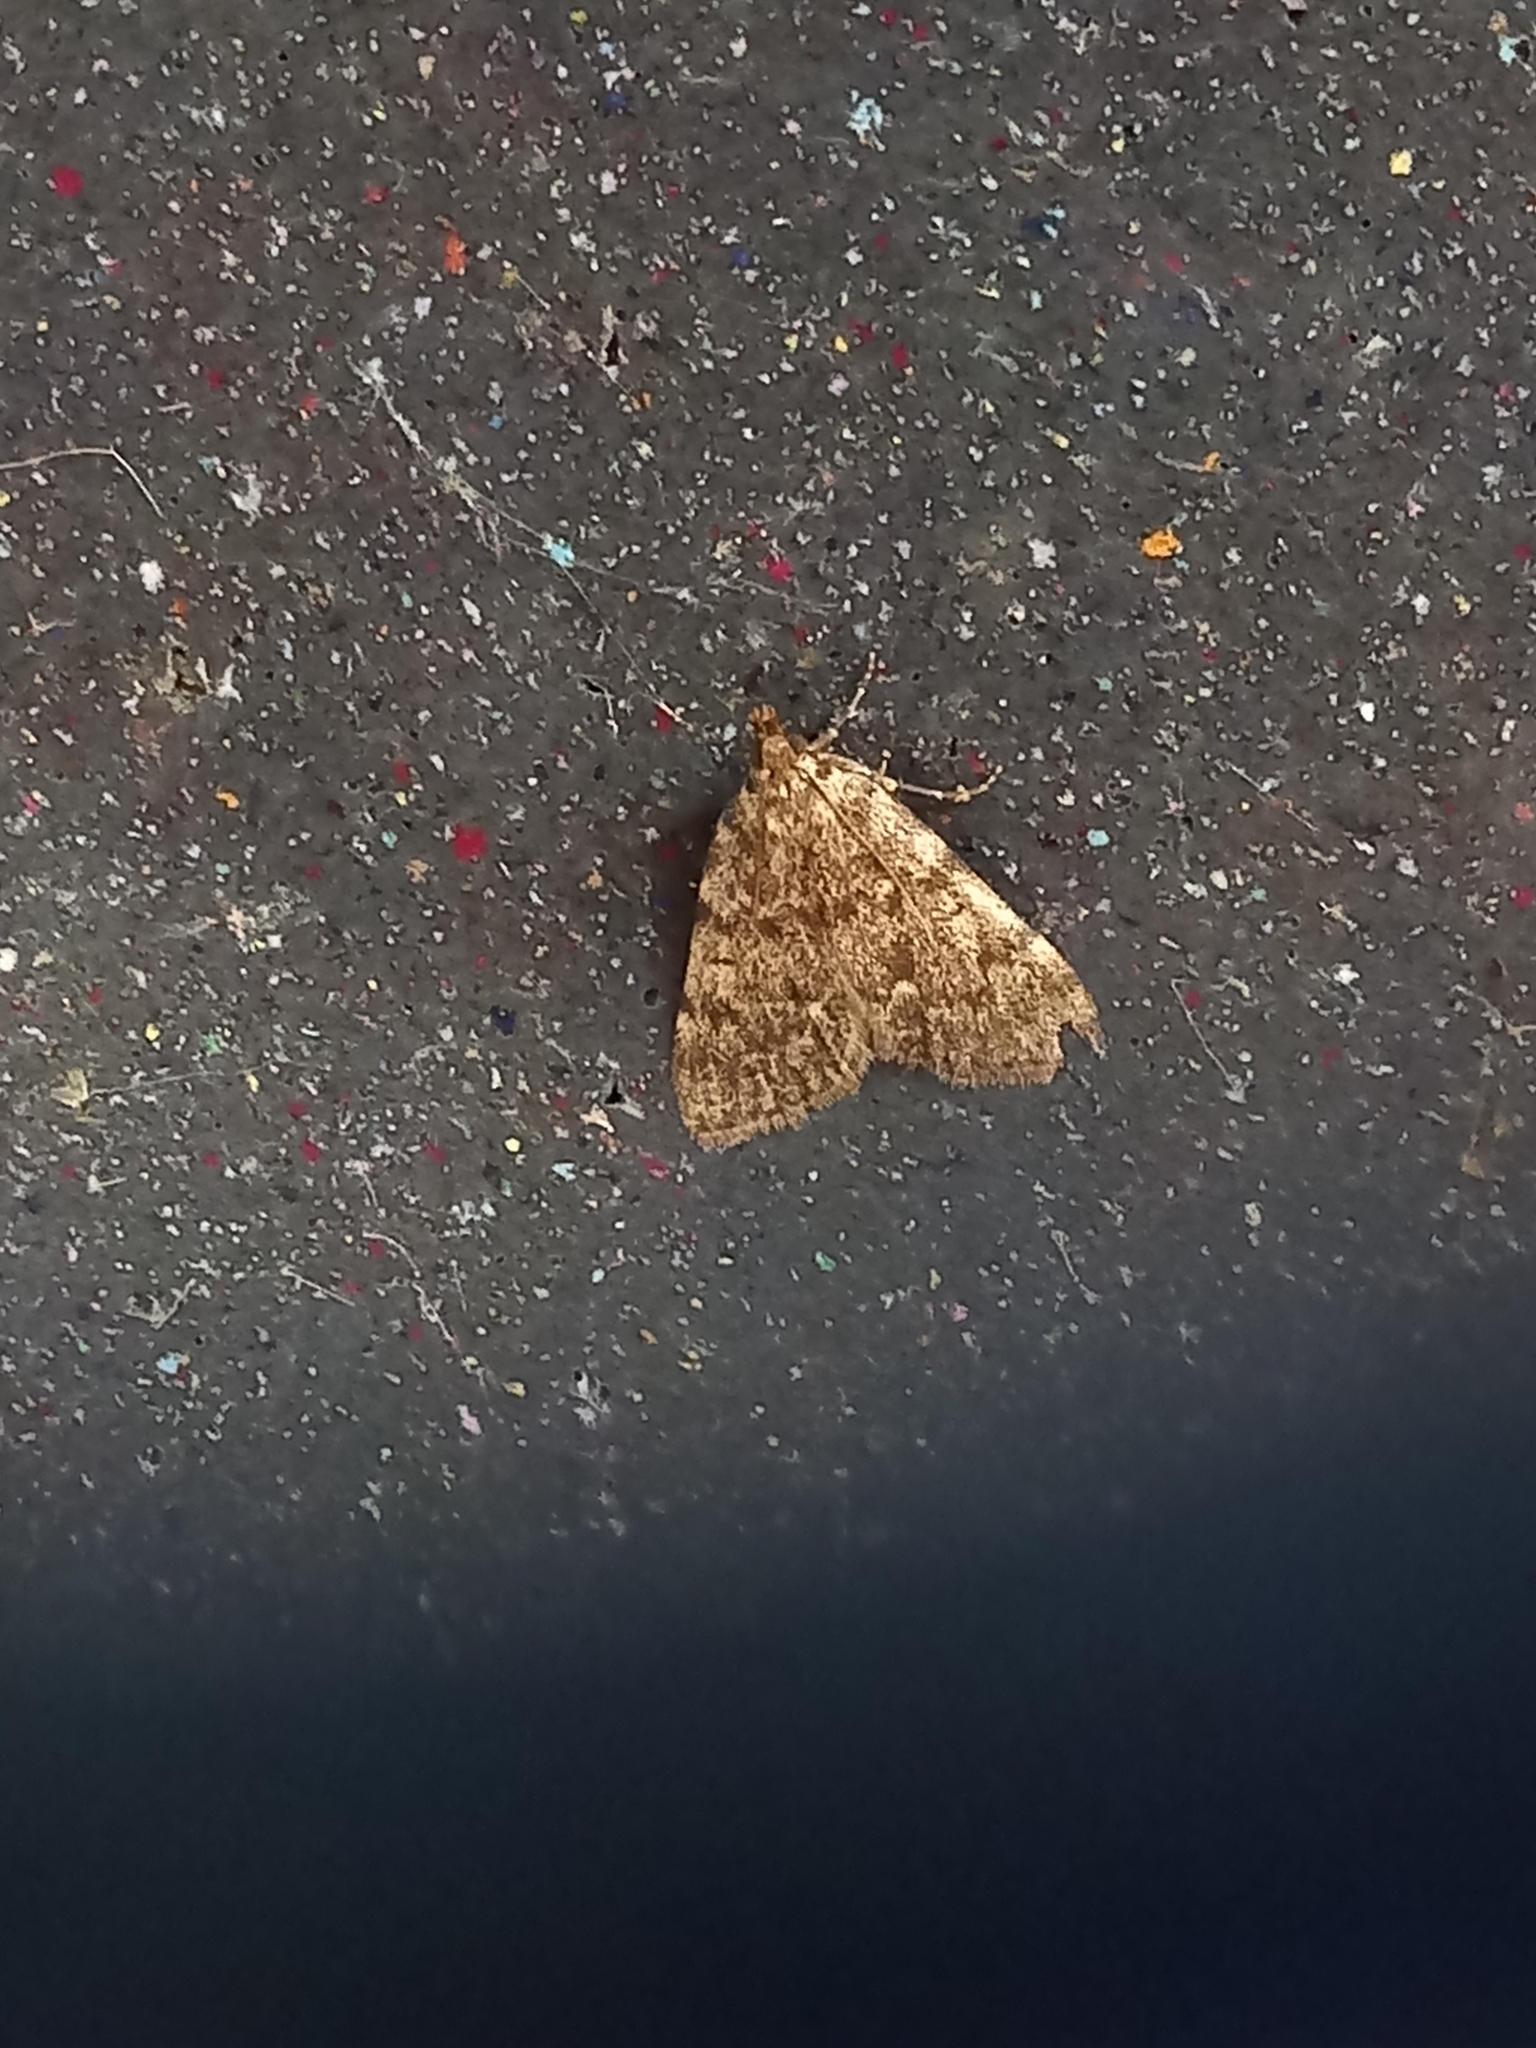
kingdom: Animalia
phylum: Arthropoda
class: Insecta
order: Lepidoptera
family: Pyralidae
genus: Aglossa
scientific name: Aglossa pinguinalis
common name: Large tabby
